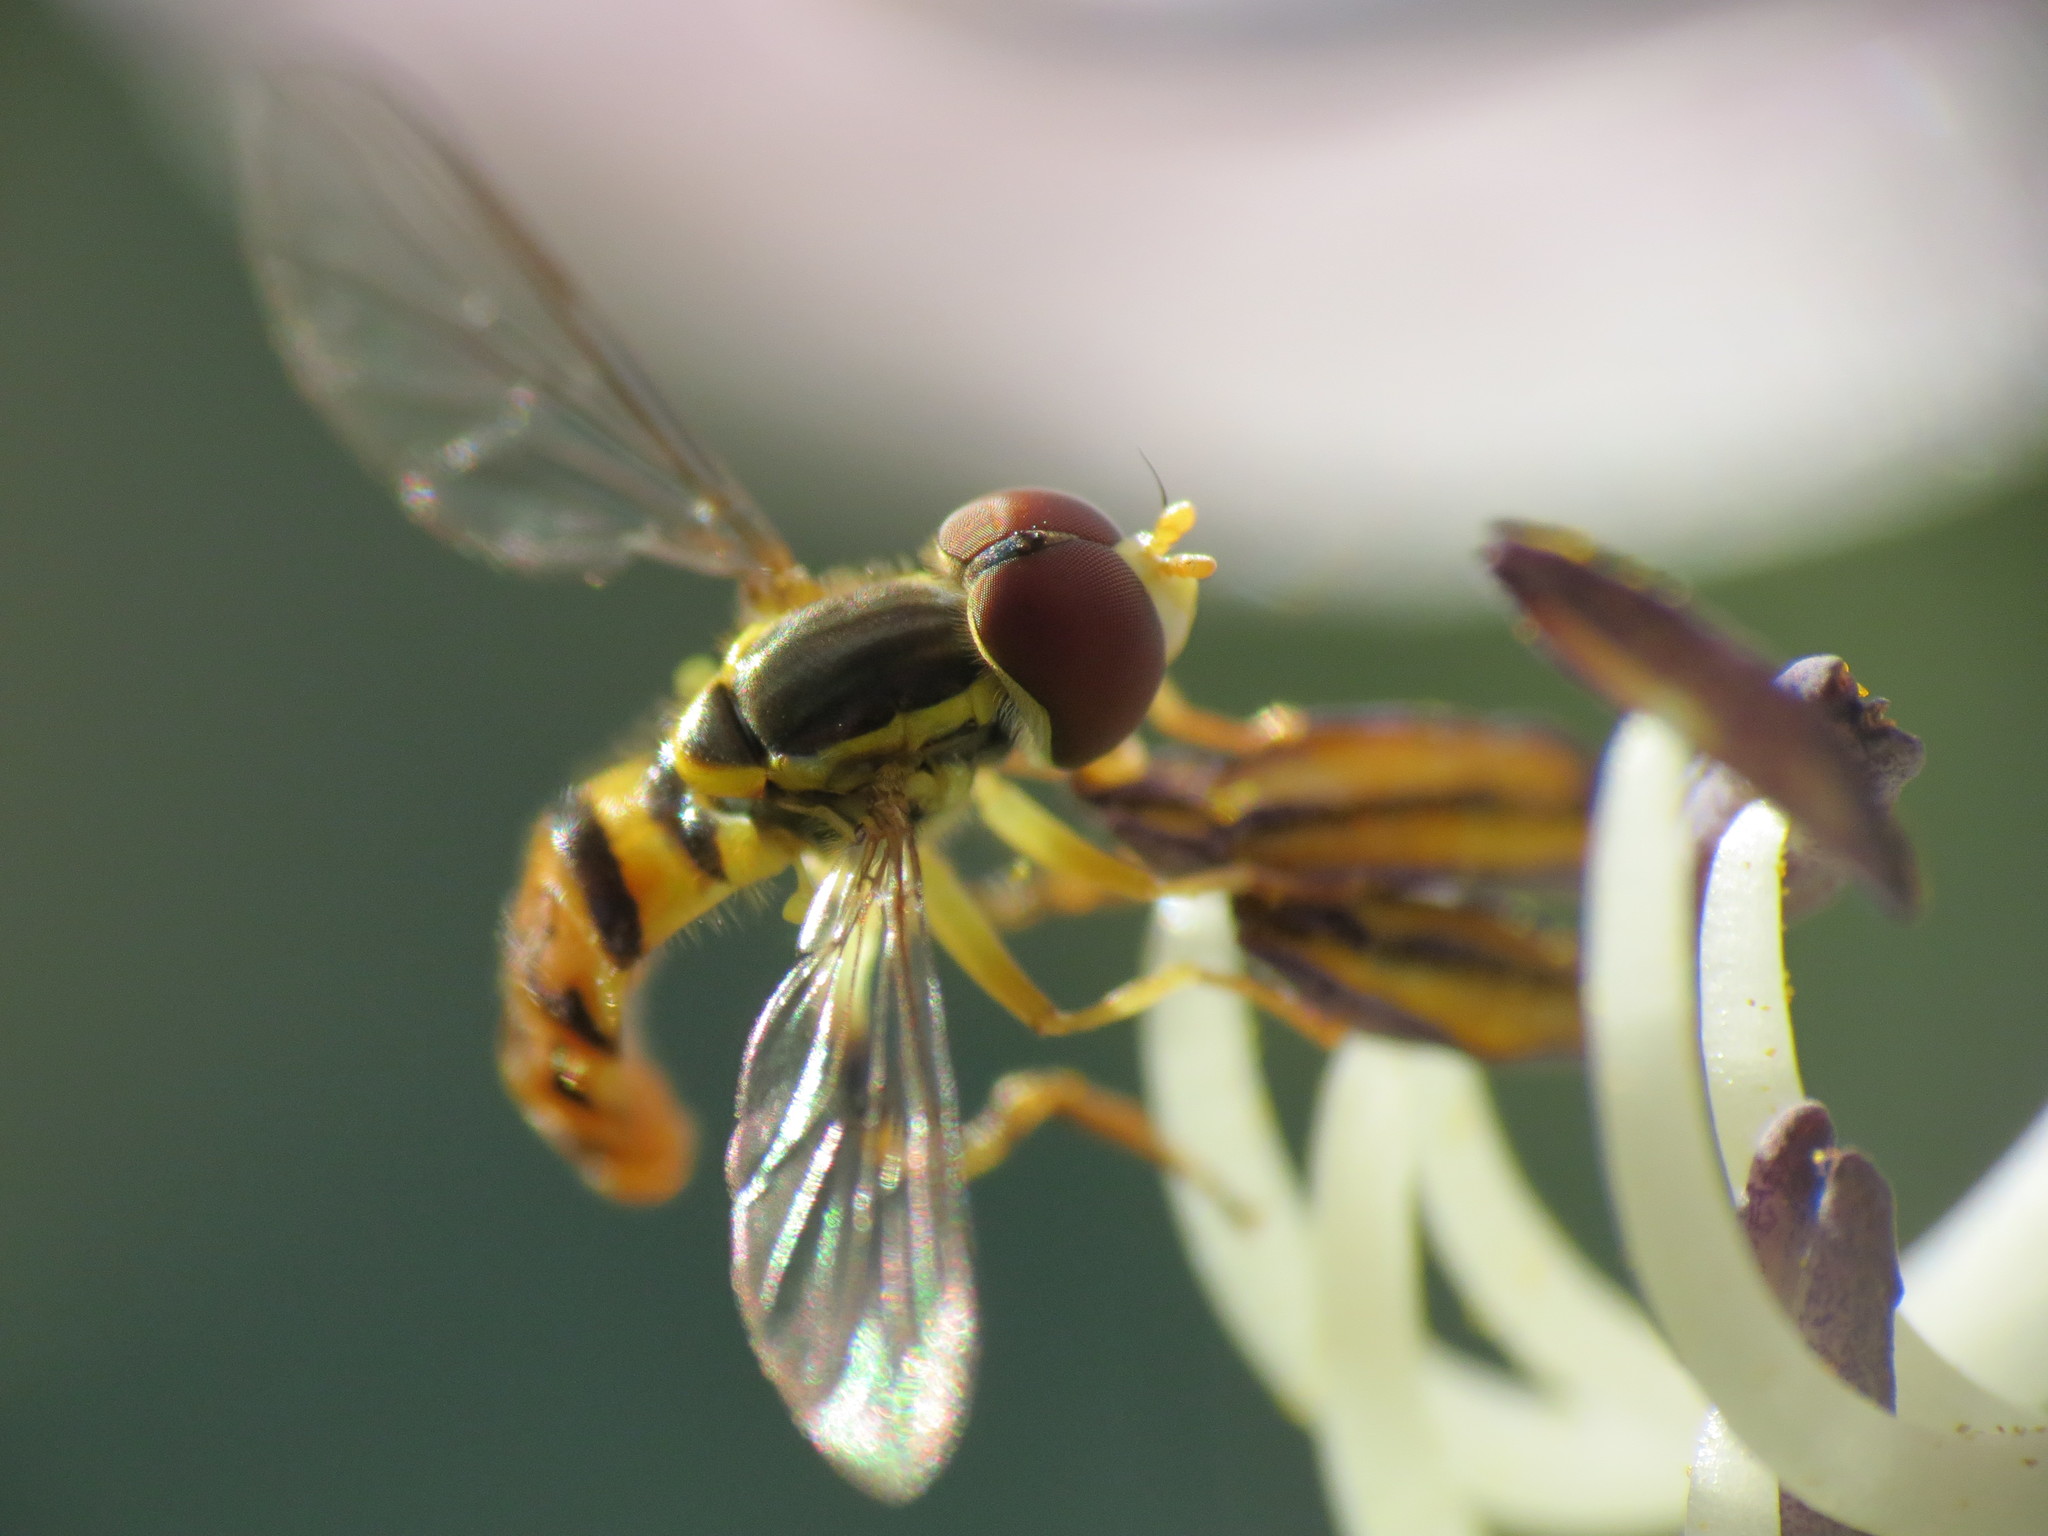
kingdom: Animalia
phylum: Arthropoda
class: Insecta
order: Diptera
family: Syrphidae
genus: Toxomerus
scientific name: Toxomerus geminatus
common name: Eastern calligrapher
